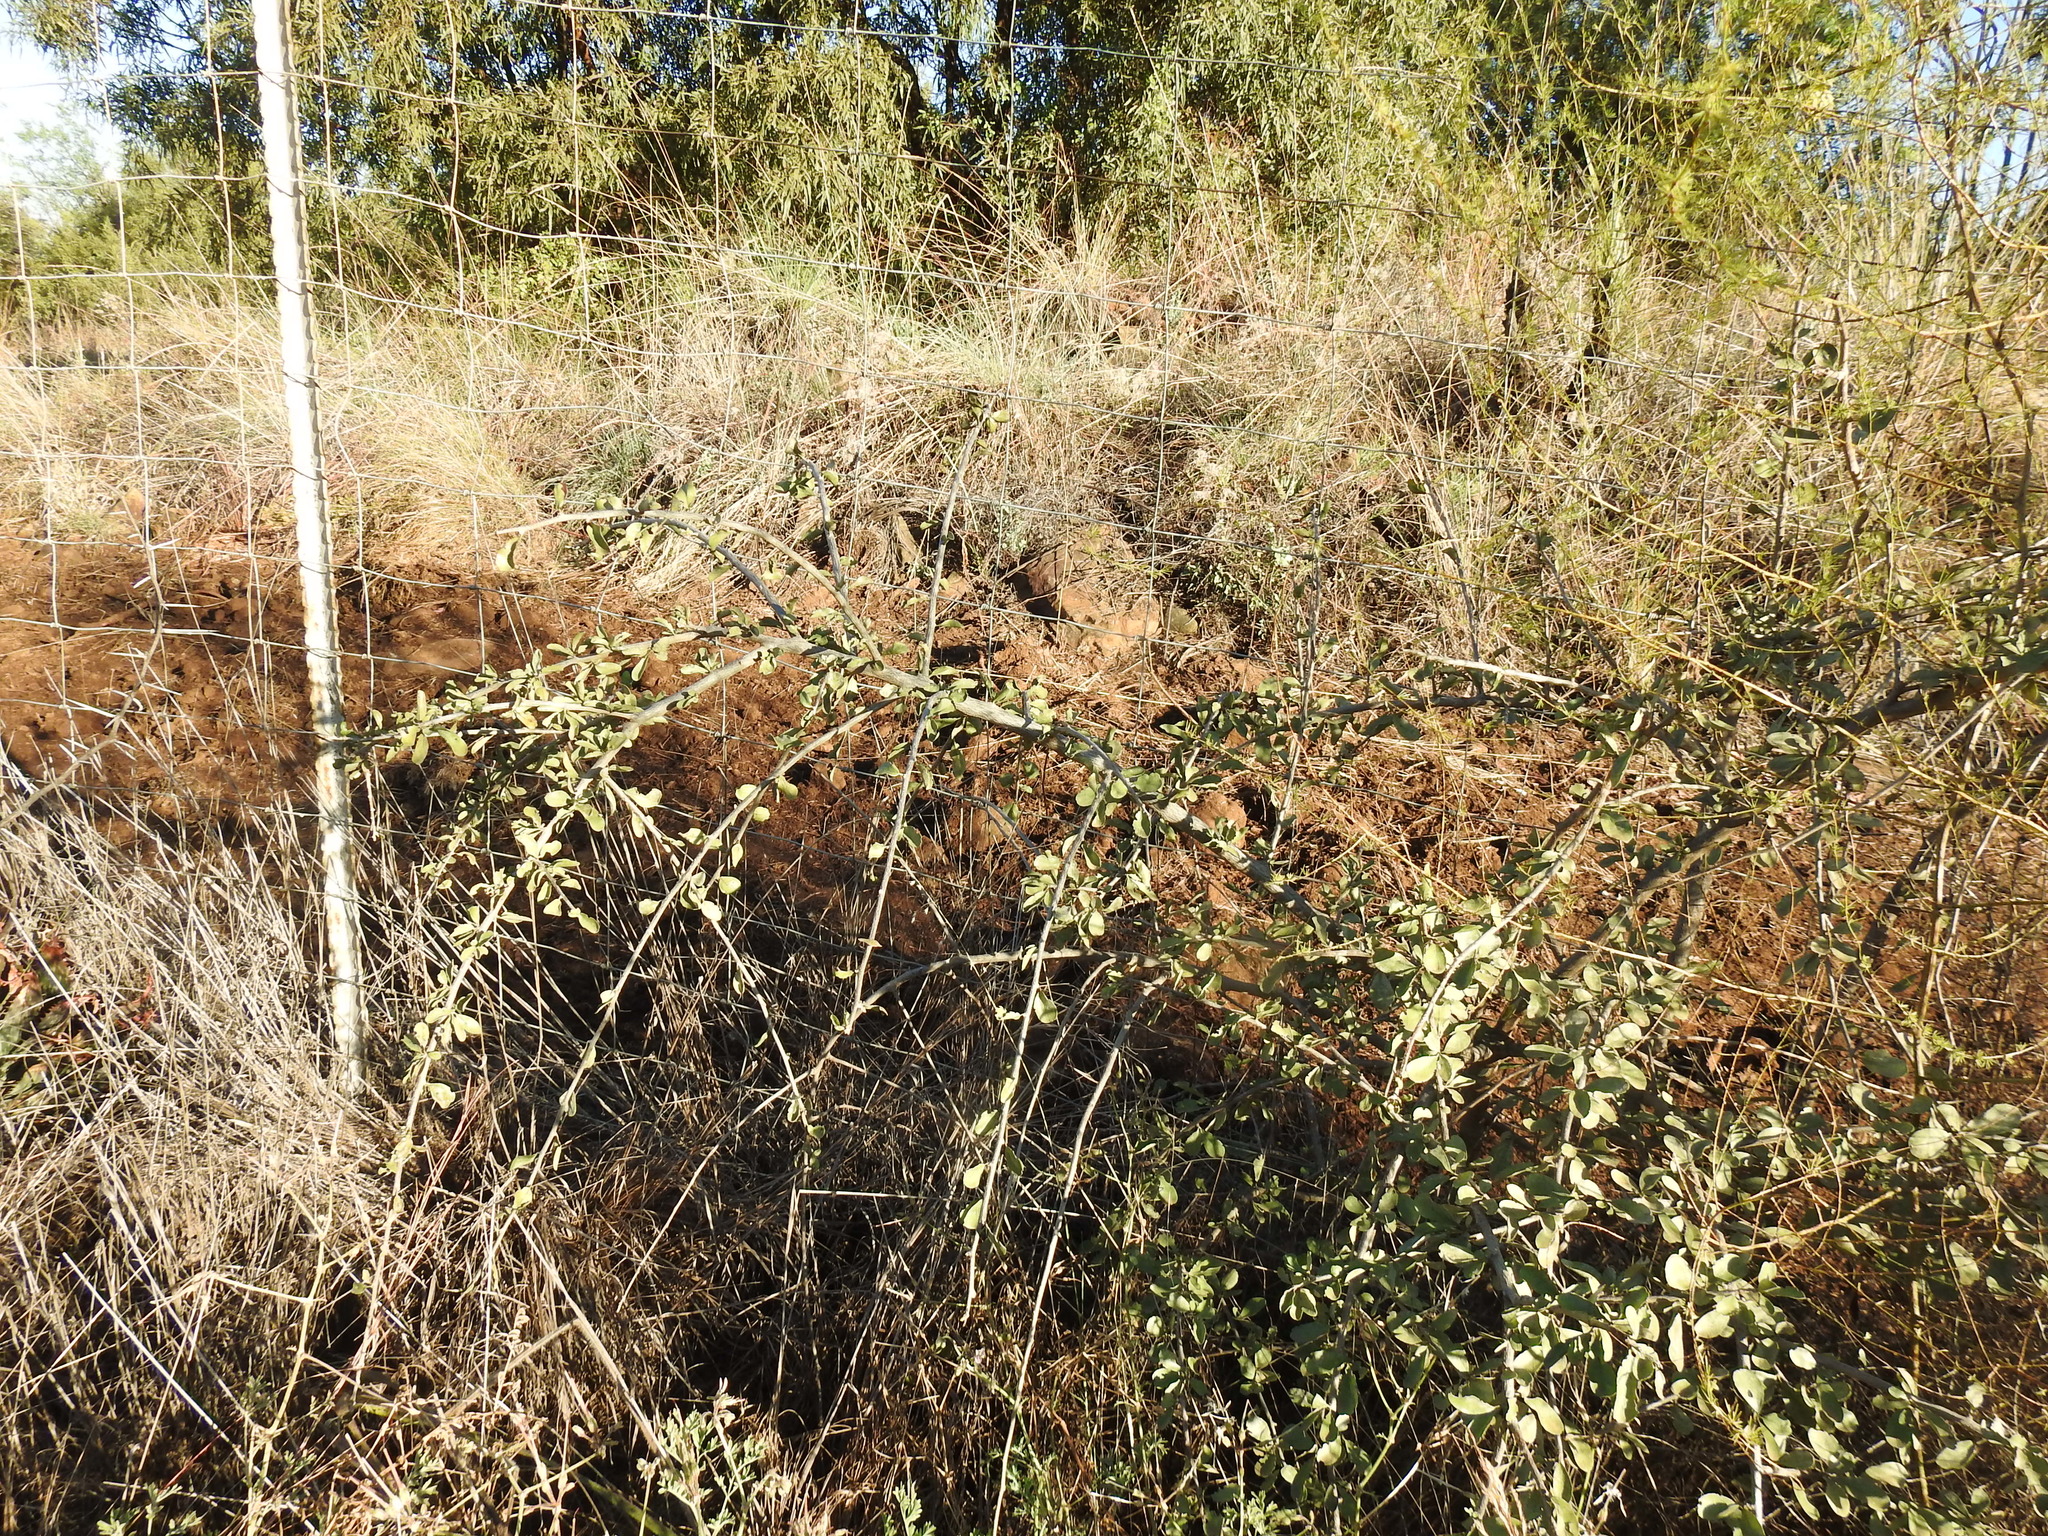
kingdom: Plantae
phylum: Tracheophyta
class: Magnoliopsida
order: Boraginales
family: Ehretiaceae
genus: Ehretia
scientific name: Ehretia rigida
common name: Cape lilac
